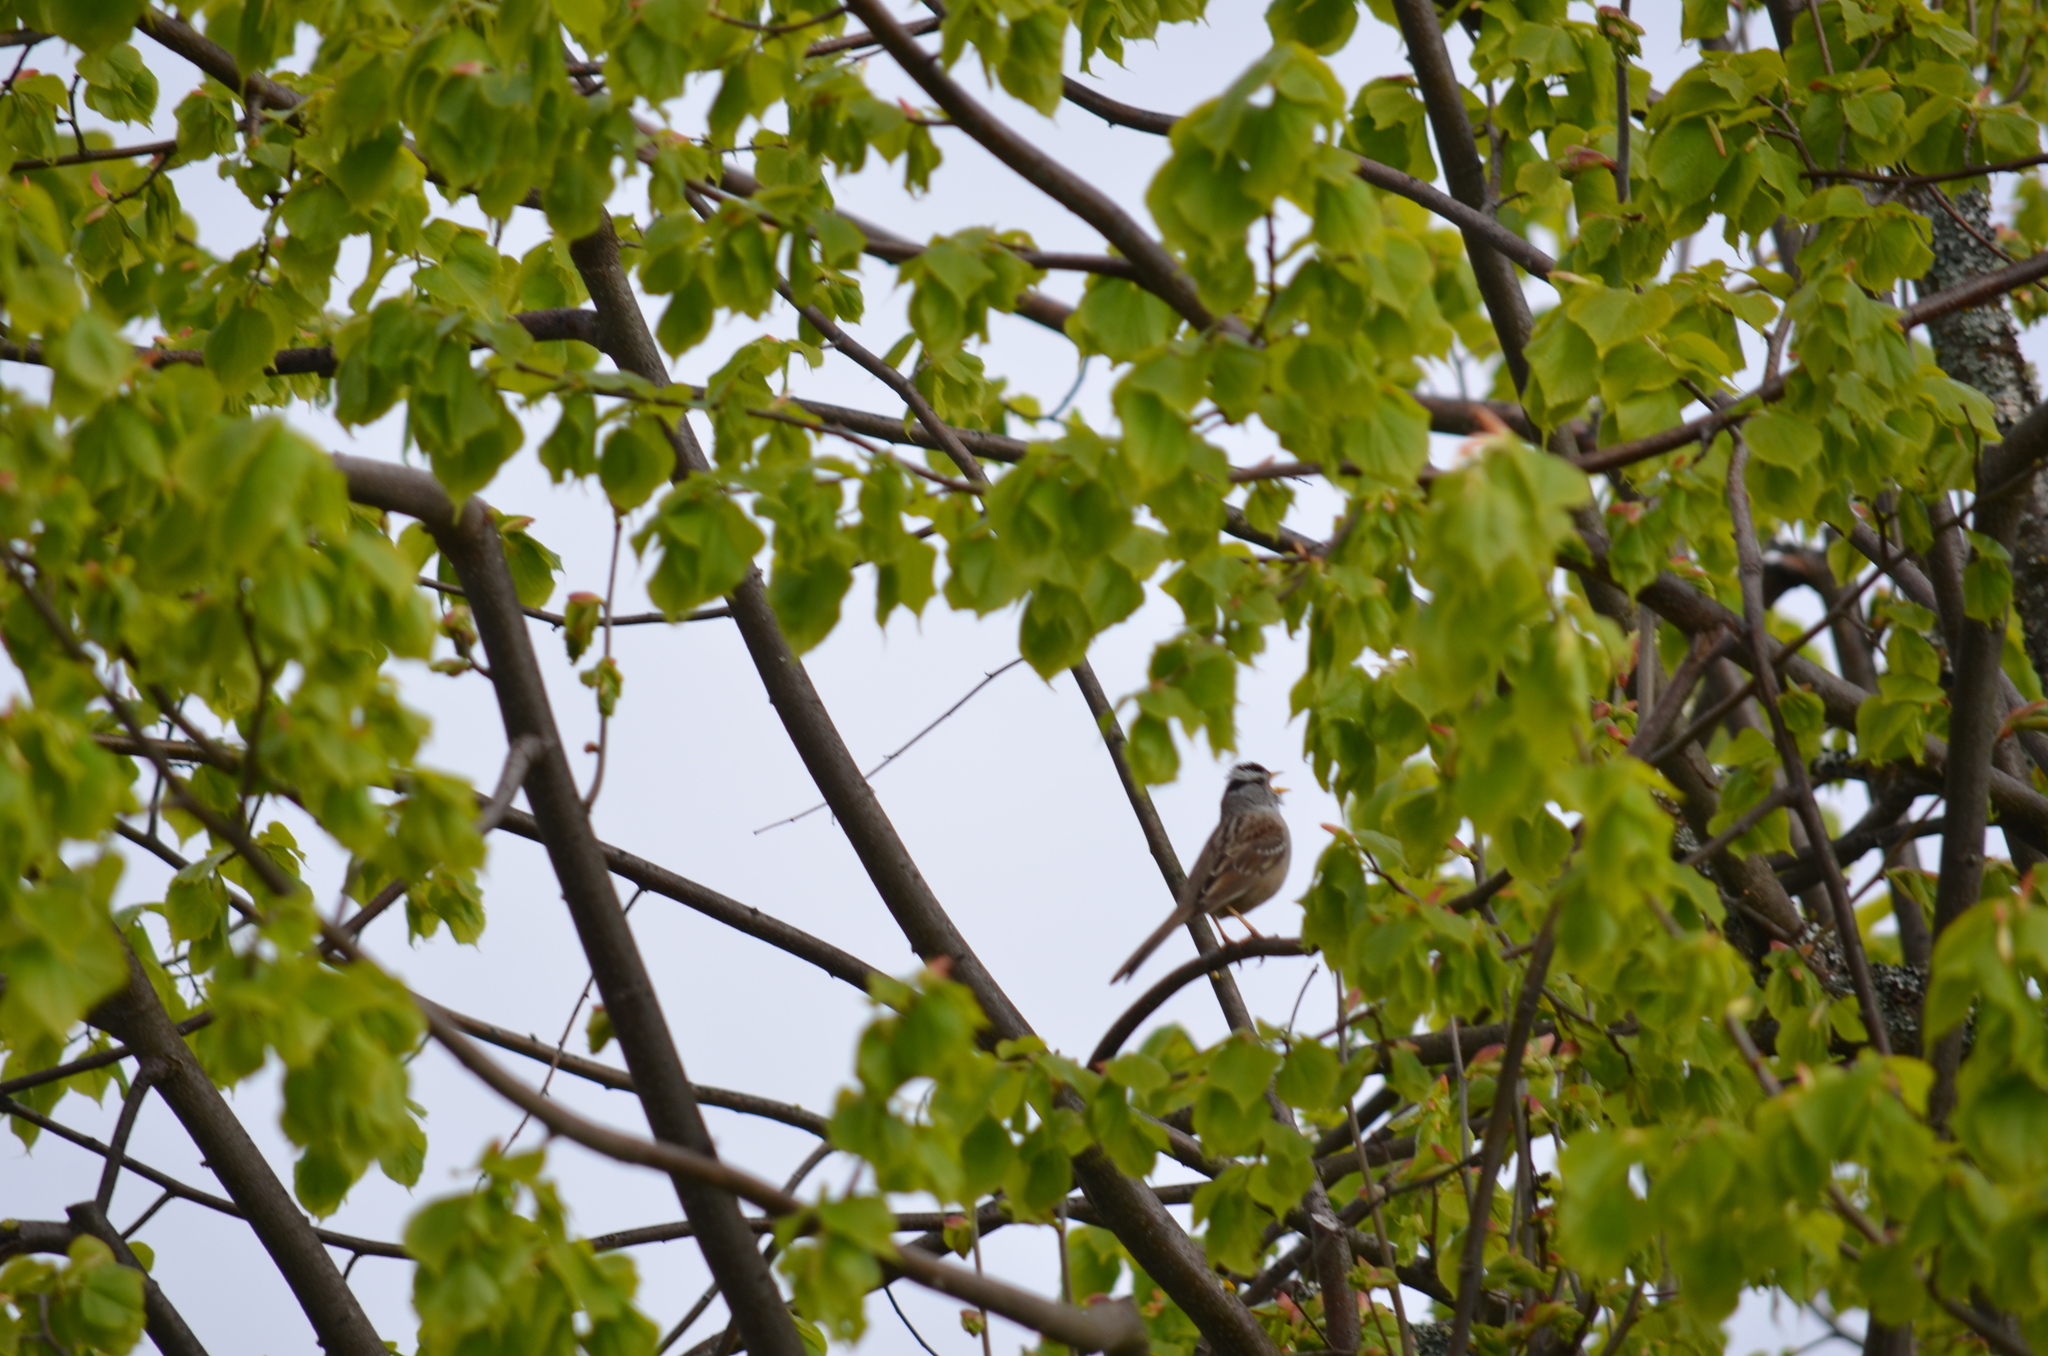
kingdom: Animalia
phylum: Chordata
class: Aves
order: Passeriformes
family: Passerellidae
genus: Zonotrichia
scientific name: Zonotrichia leucophrys
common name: White-crowned sparrow
